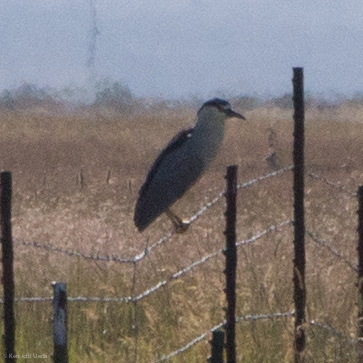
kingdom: Animalia
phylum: Chordata
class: Aves
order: Pelecaniformes
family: Ardeidae
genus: Nycticorax
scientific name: Nycticorax nycticorax
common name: Black-crowned night heron
